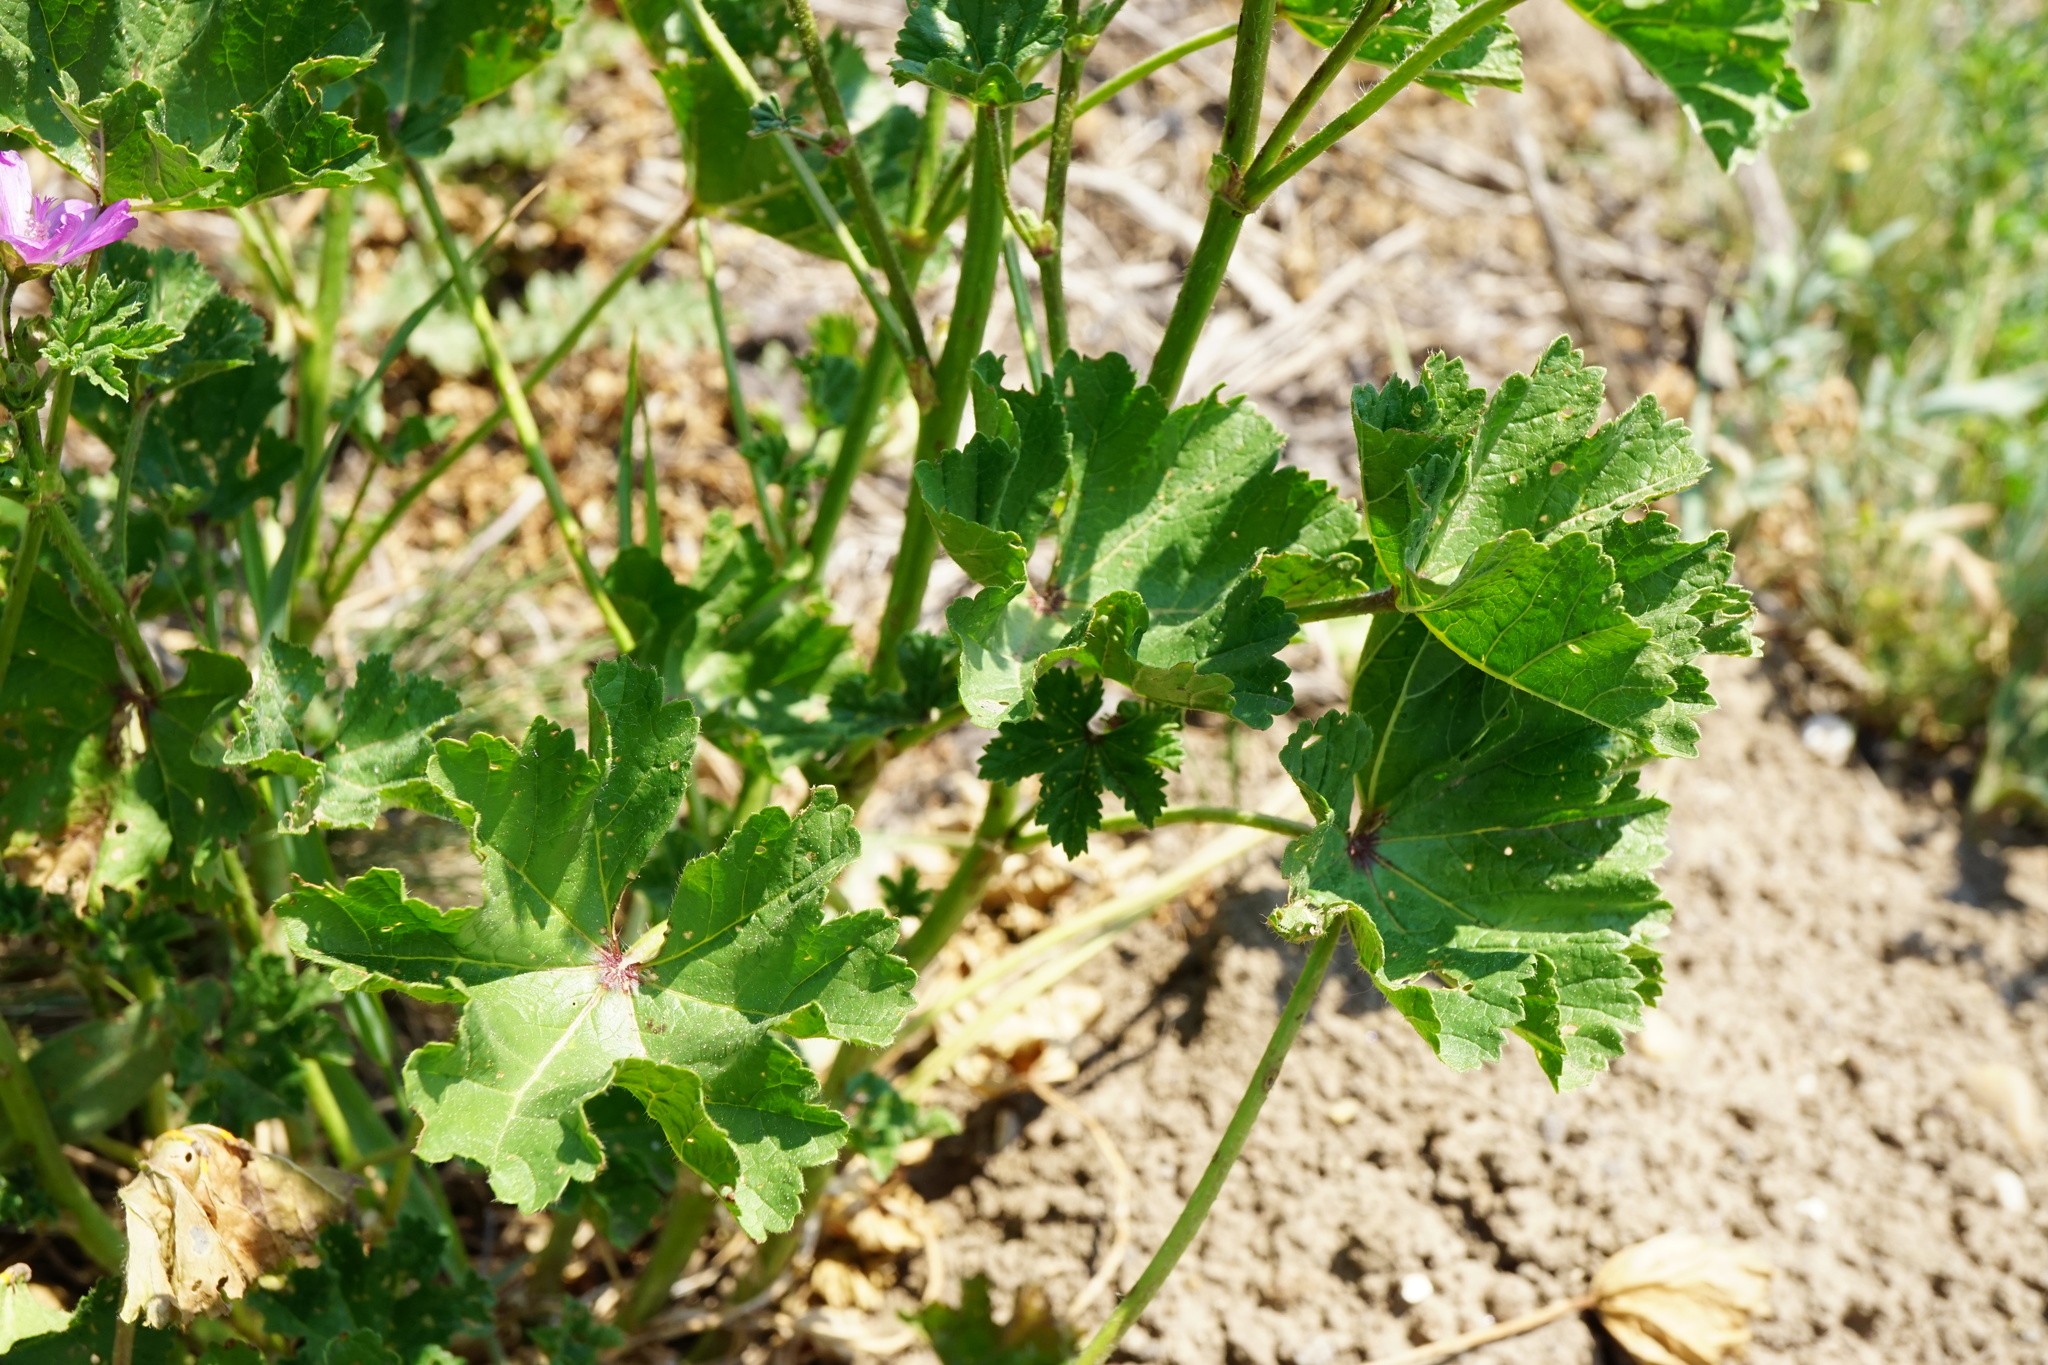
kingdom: Plantae
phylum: Tracheophyta
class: Magnoliopsida
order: Malvales
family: Malvaceae
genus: Malva
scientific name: Malva sylvestris
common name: Common mallow
